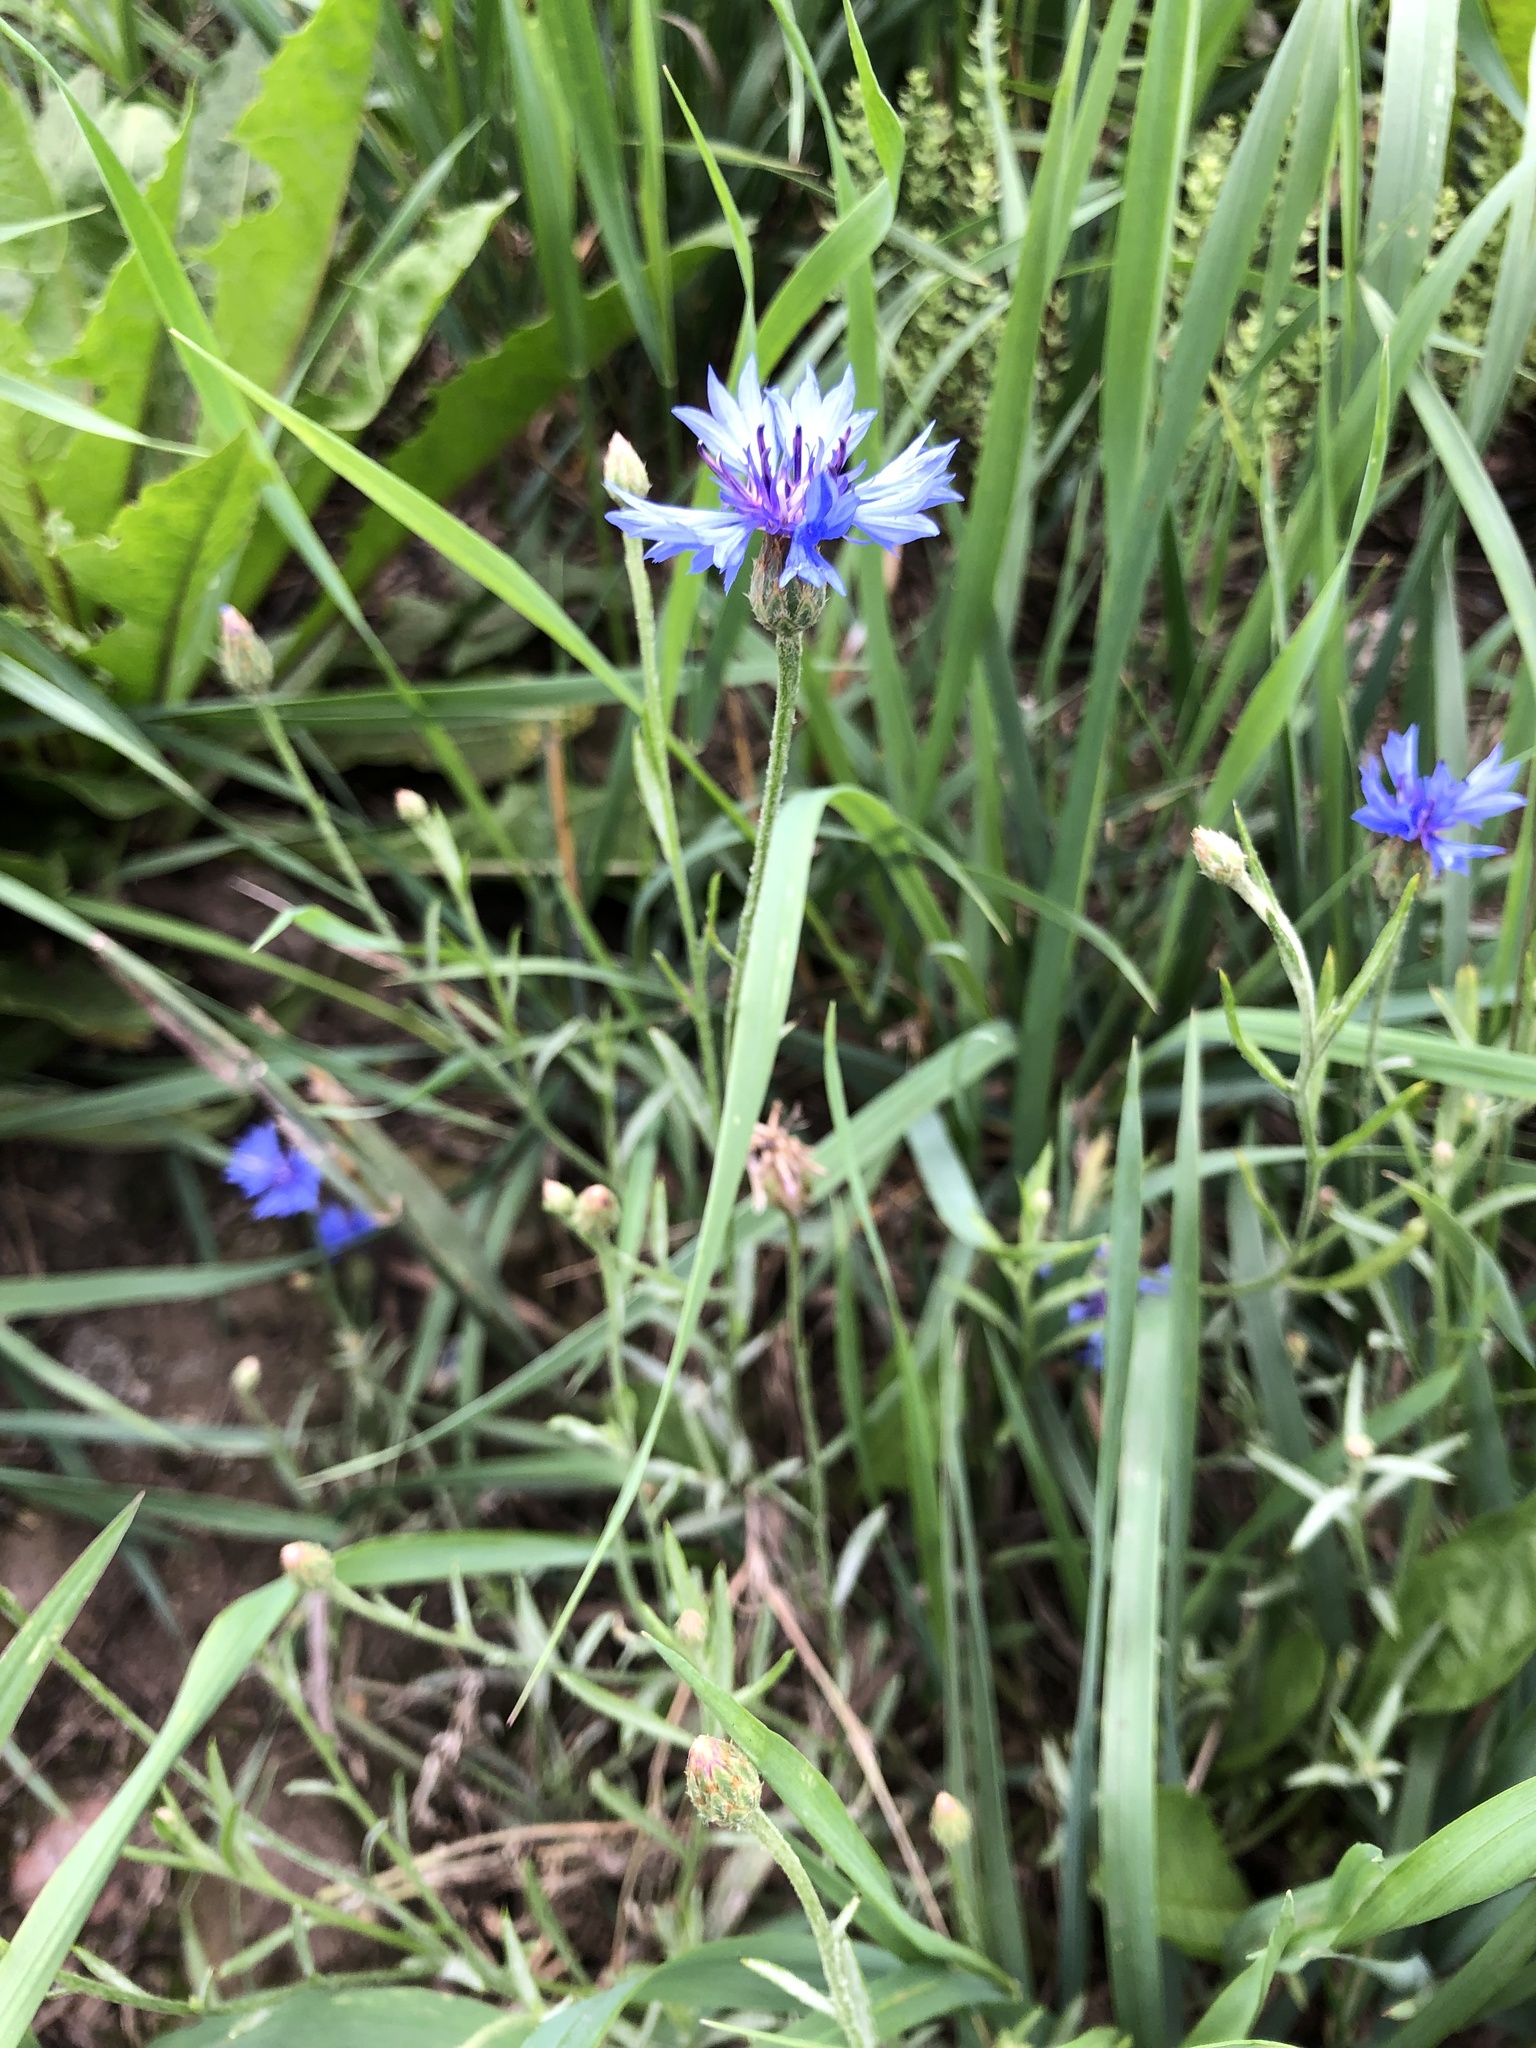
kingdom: Plantae
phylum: Tracheophyta
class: Magnoliopsida
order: Asterales
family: Asteraceae
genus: Centaurea
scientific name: Centaurea cyanus
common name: Cornflower
